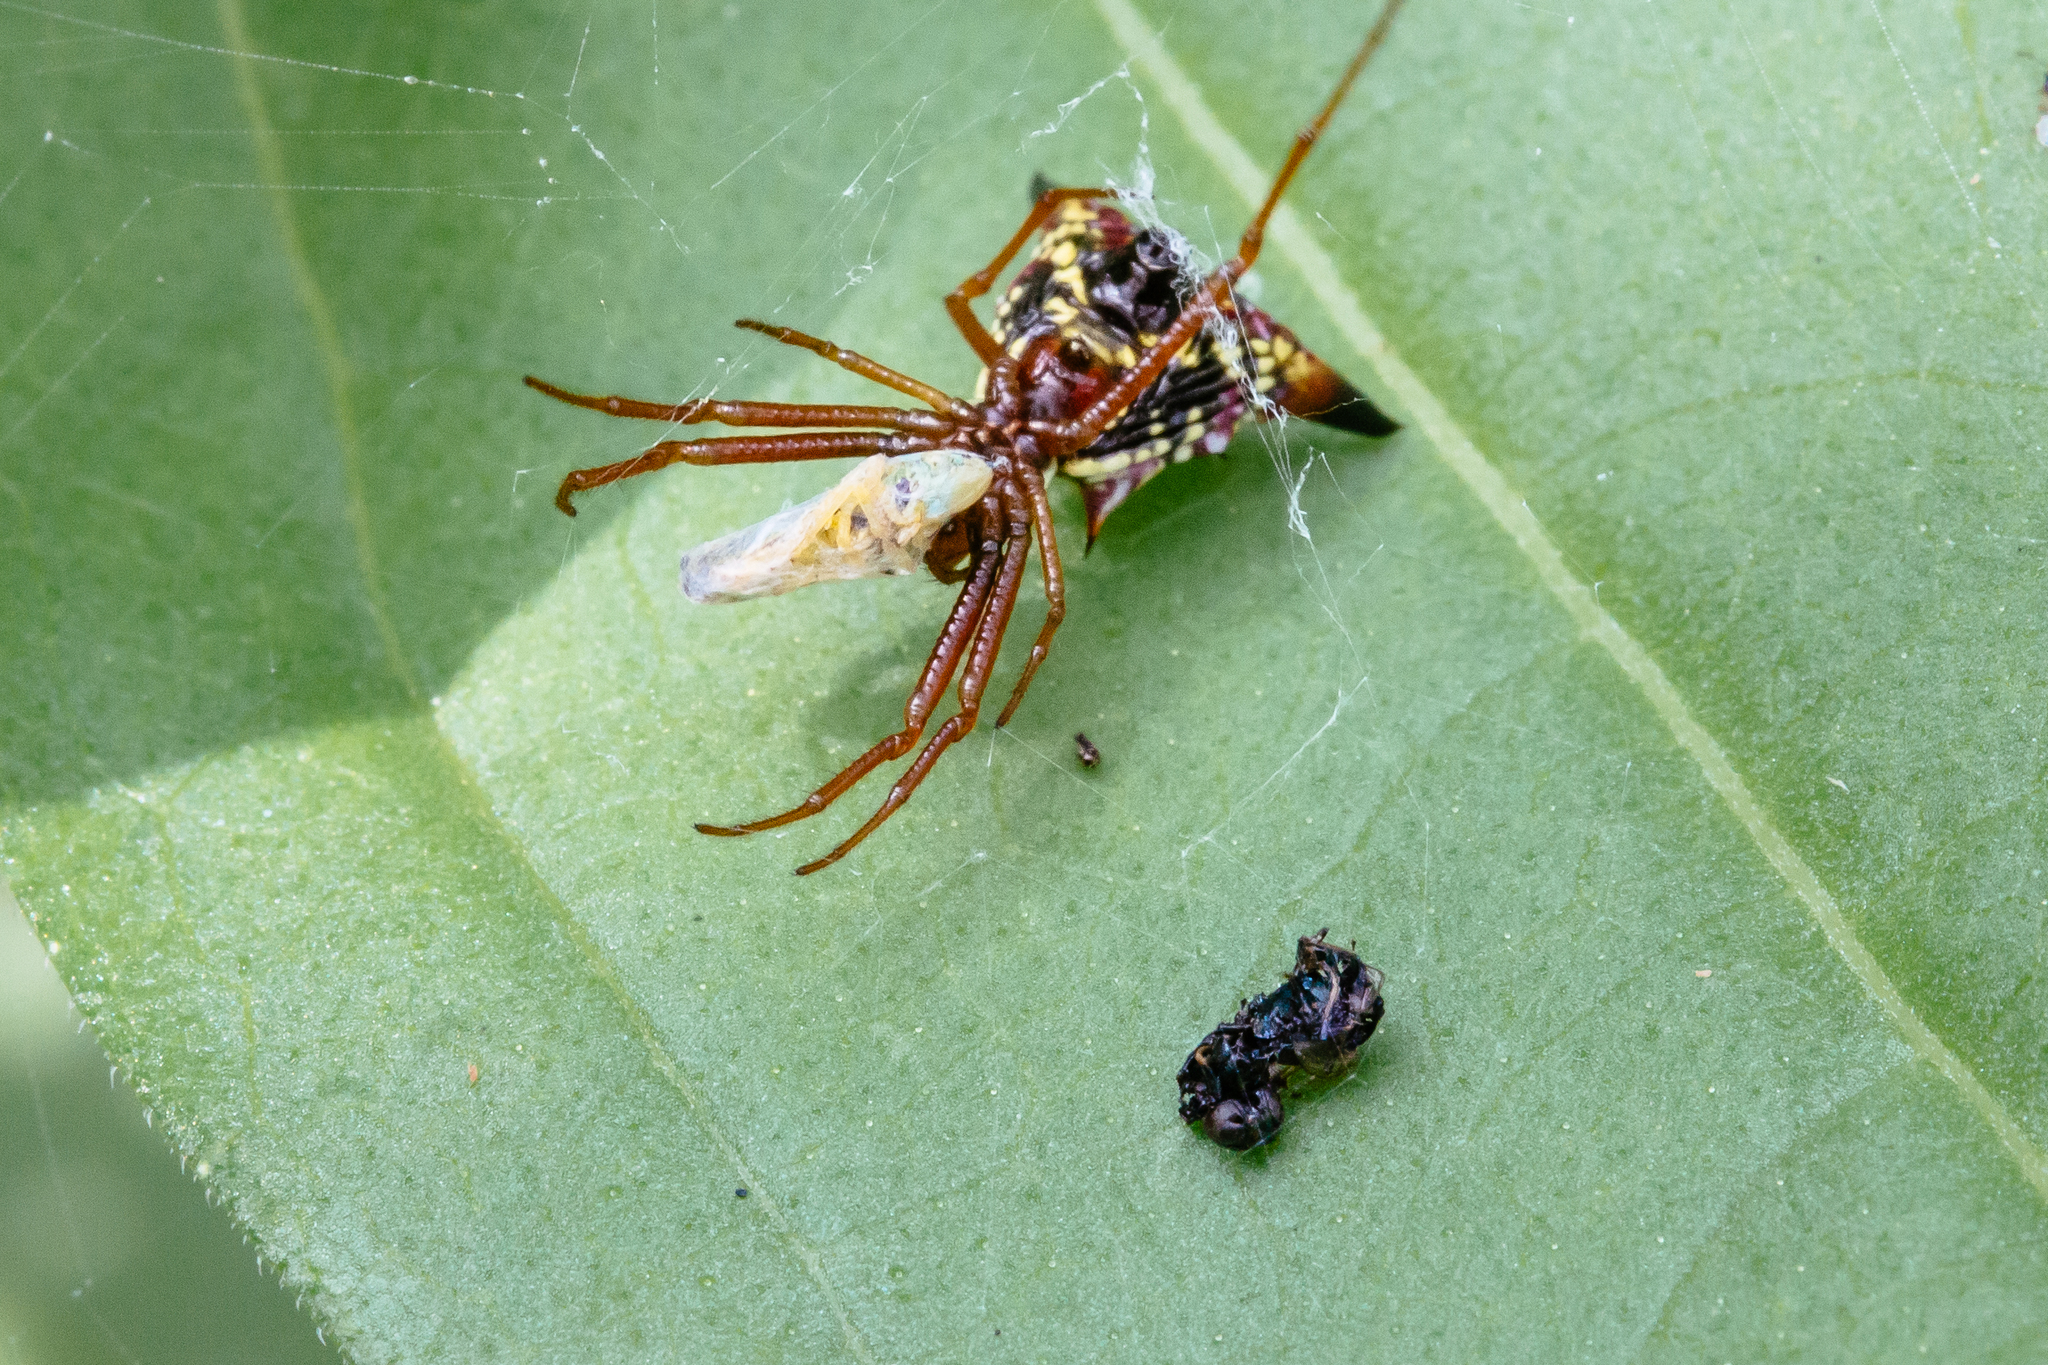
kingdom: Animalia
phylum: Arthropoda
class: Arachnida
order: Araneae
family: Araneidae
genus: Micrathena
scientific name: Micrathena sagittata
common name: Orb weavers
